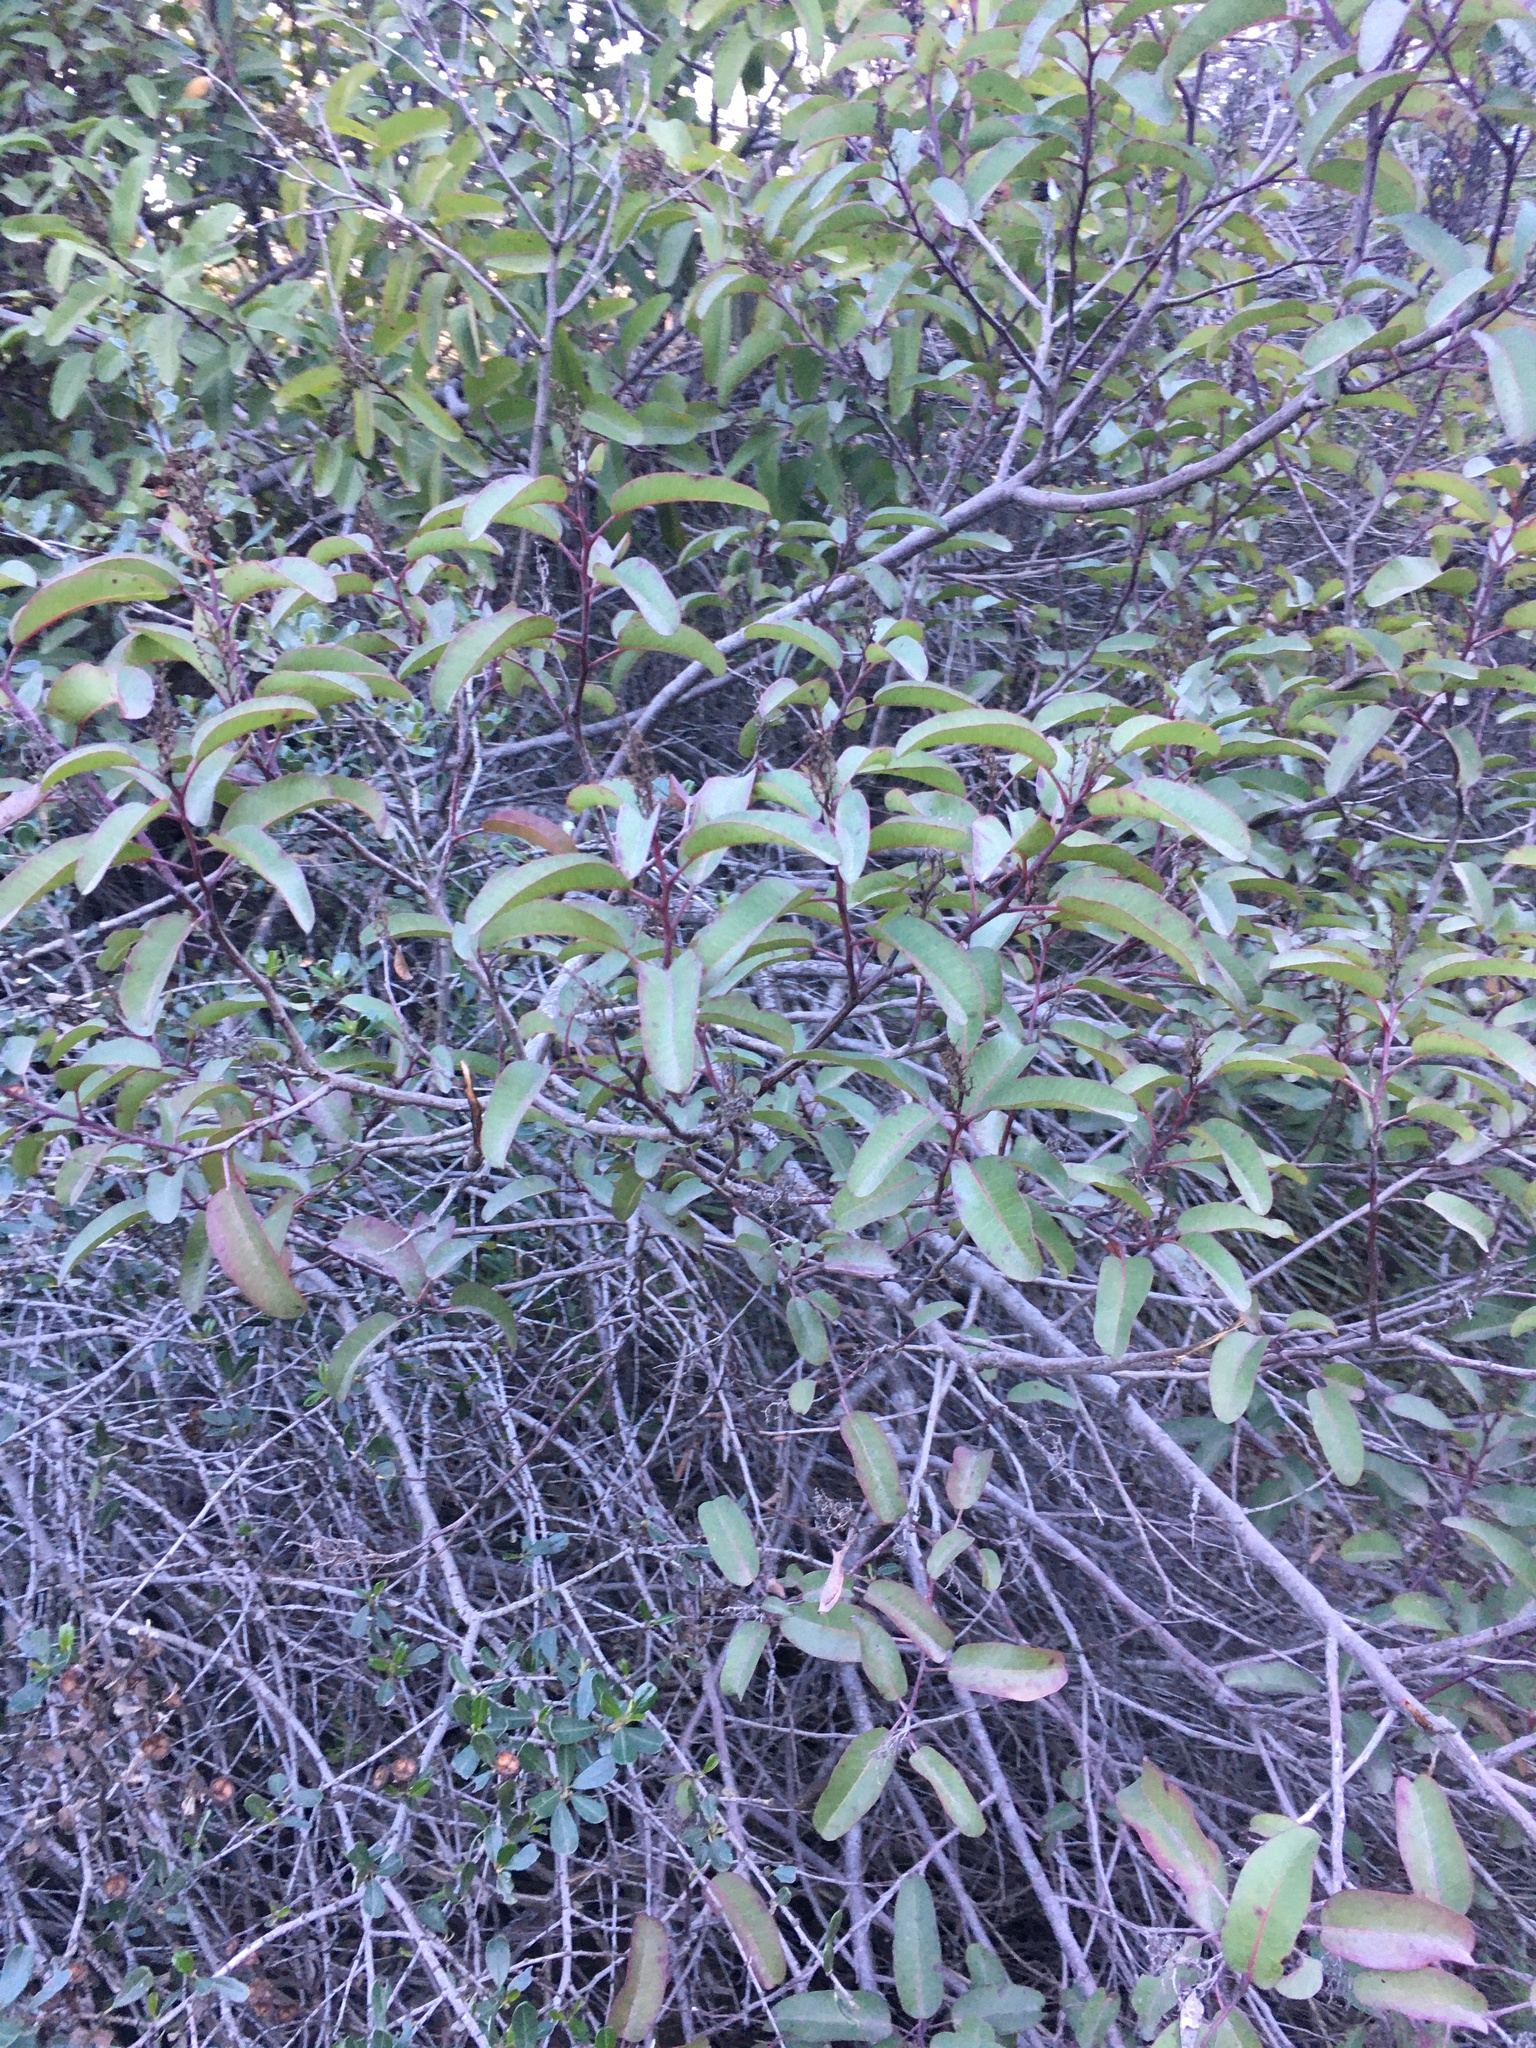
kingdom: Plantae
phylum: Tracheophyta
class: Magnoliopsida
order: Sapindales
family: Anacardiaceae
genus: Malosma
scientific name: Malosma laurina
